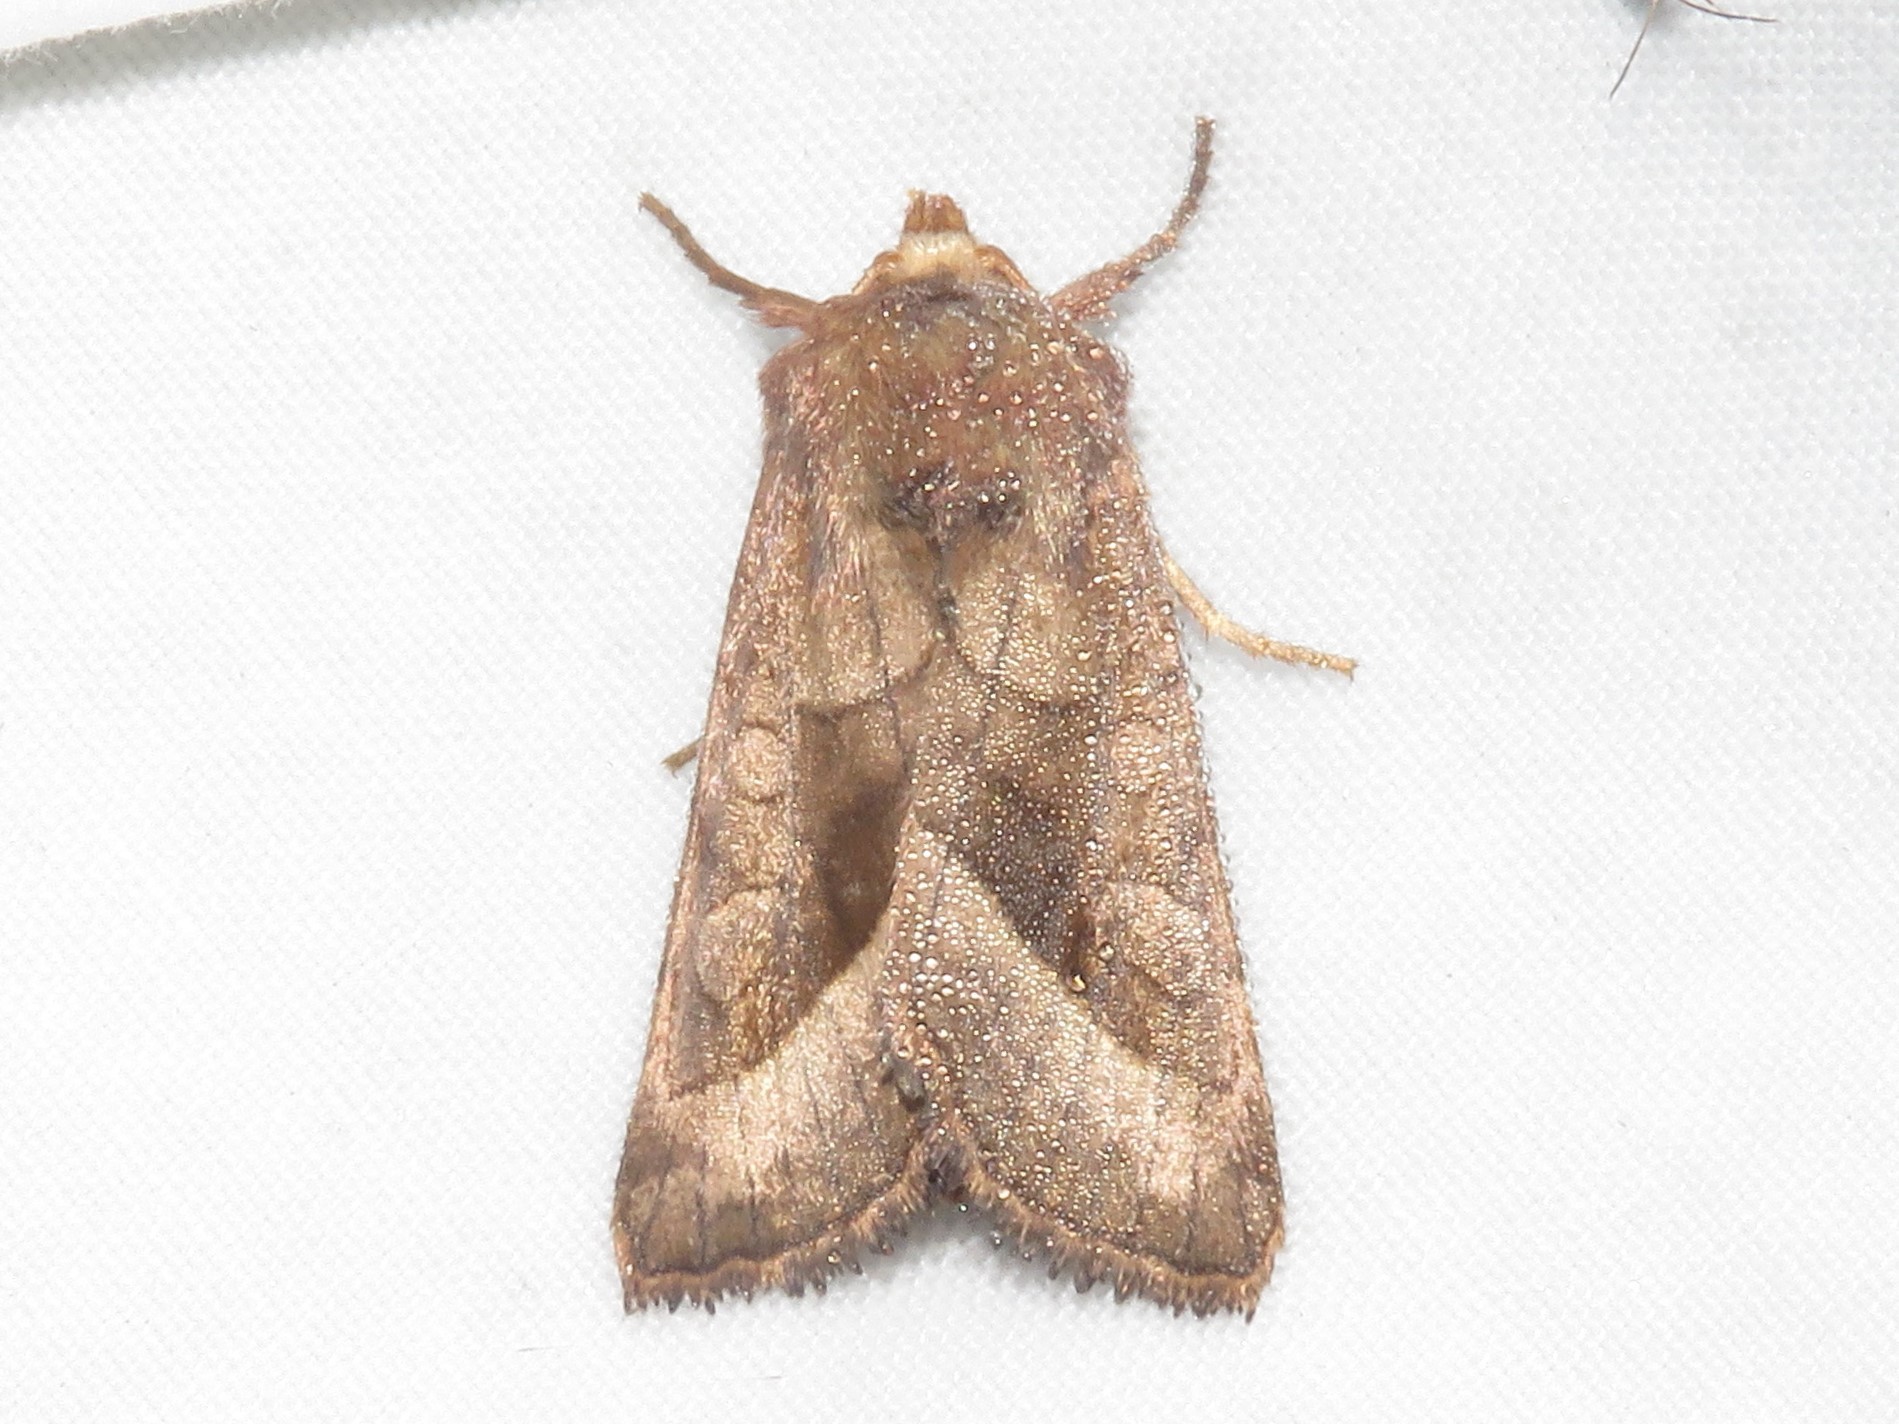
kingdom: Animalia
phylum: Arthropoda
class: Insecta
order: Lepidoptera
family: Noctuidae
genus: Hydraecia
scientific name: Hydraecia micacea
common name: Rosy rustic
